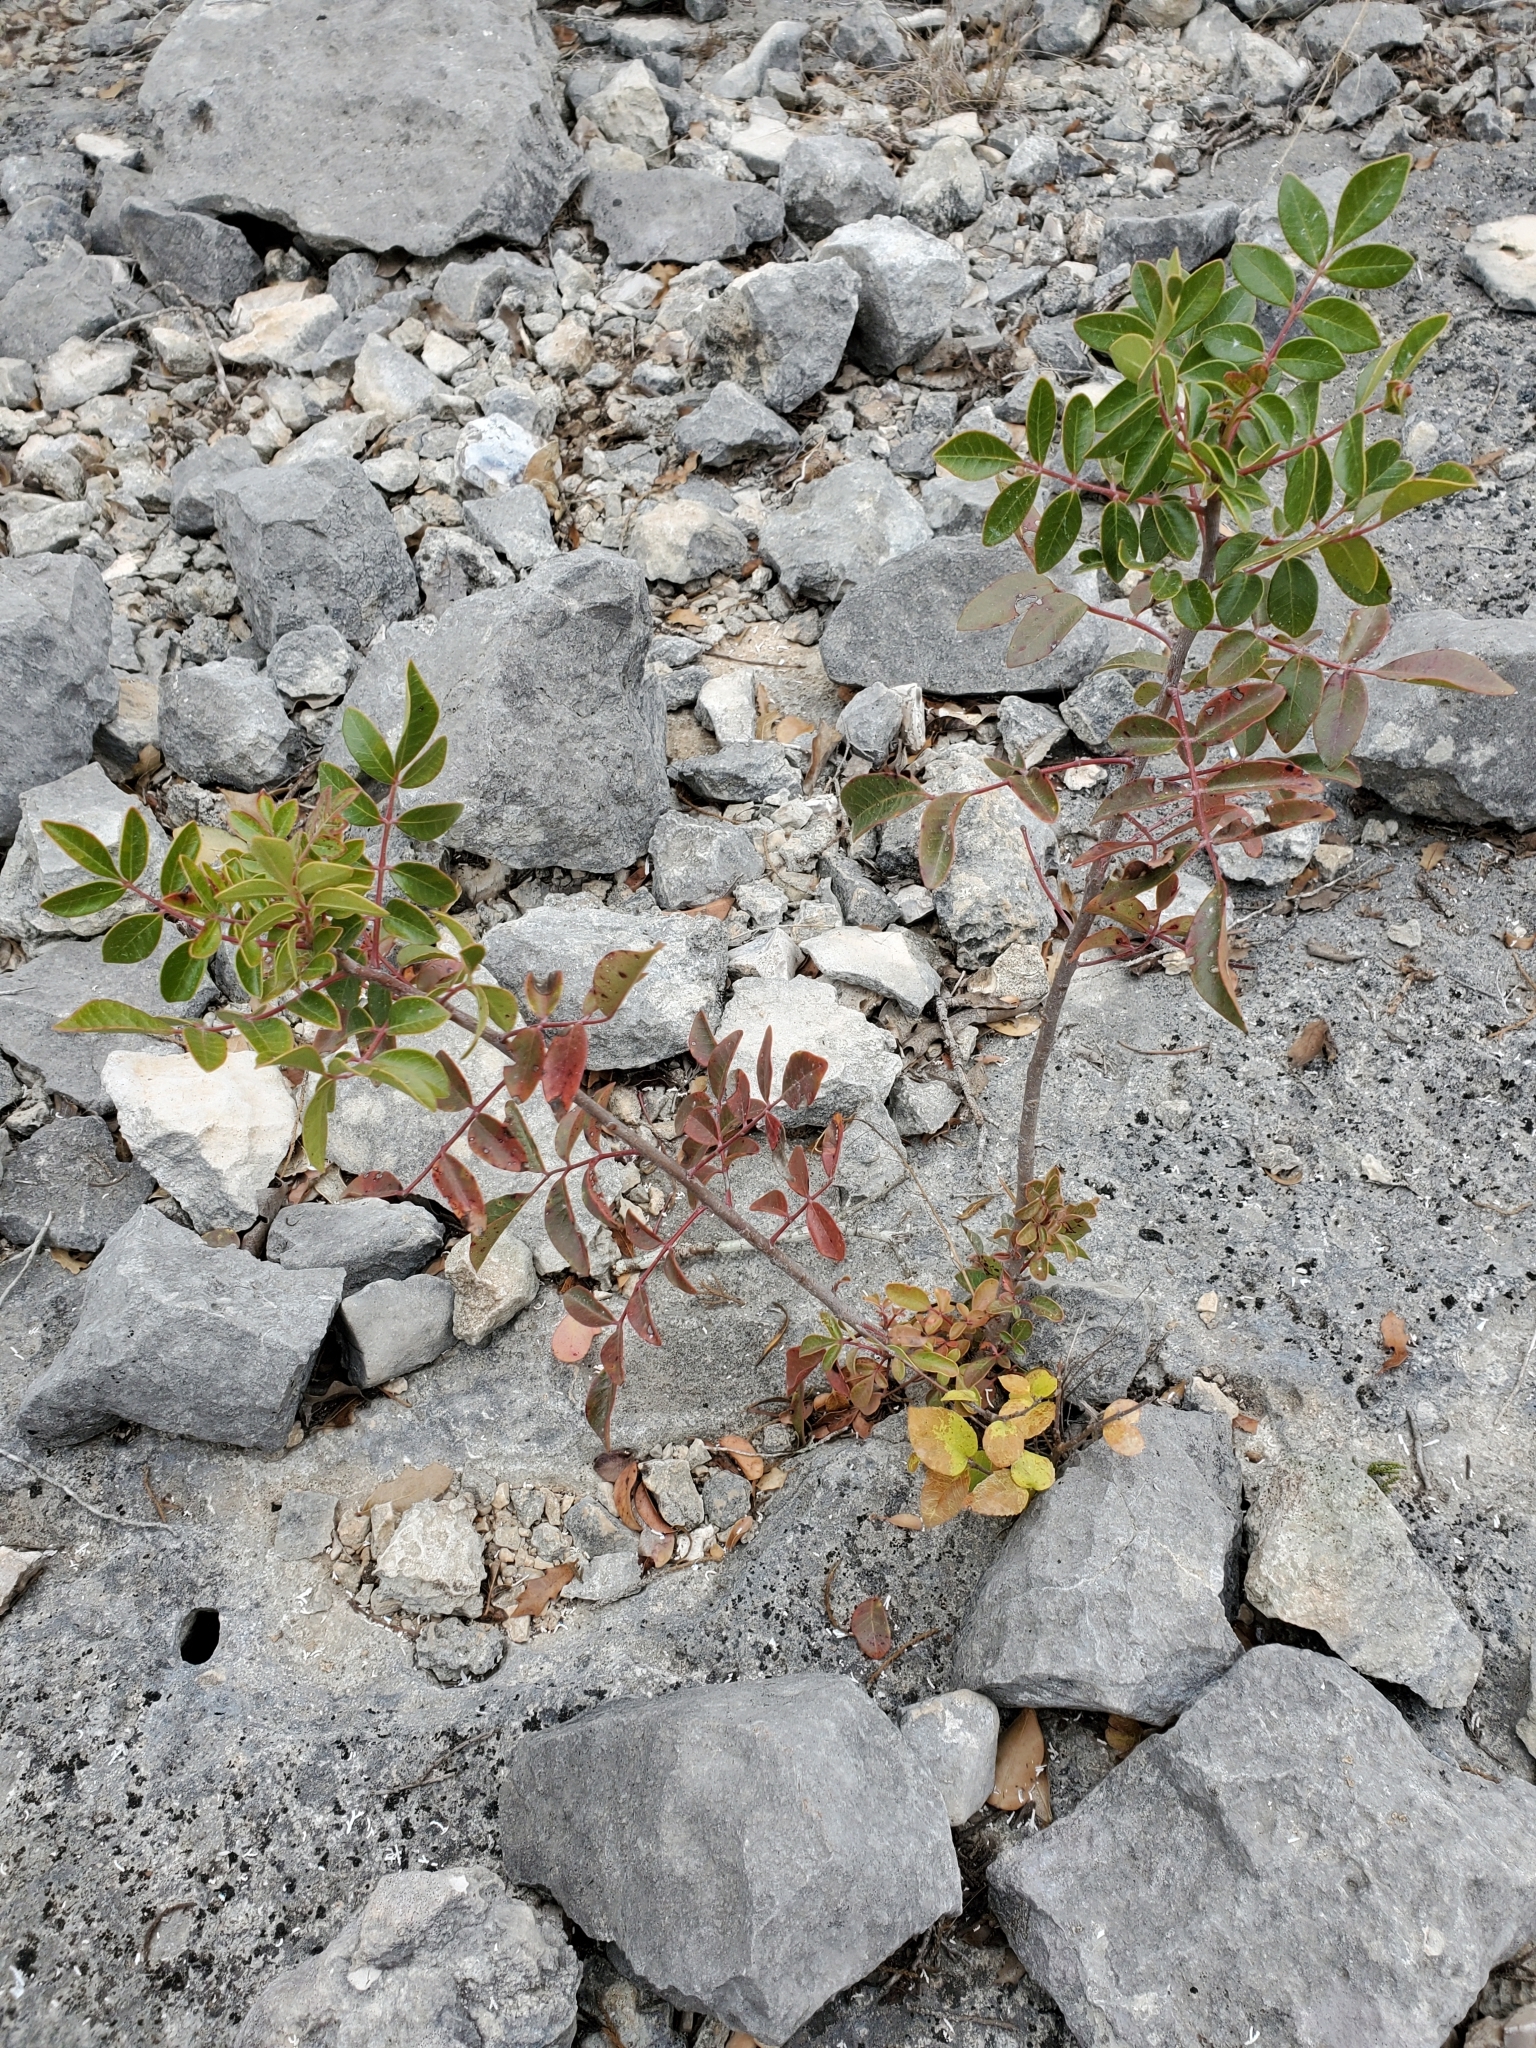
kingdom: Plantae
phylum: Tracheophyta
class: Magnoliopsida
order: Sapindales
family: Anacardiaceae
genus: Rhus
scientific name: Rhus virens
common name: Evergreen sumac
